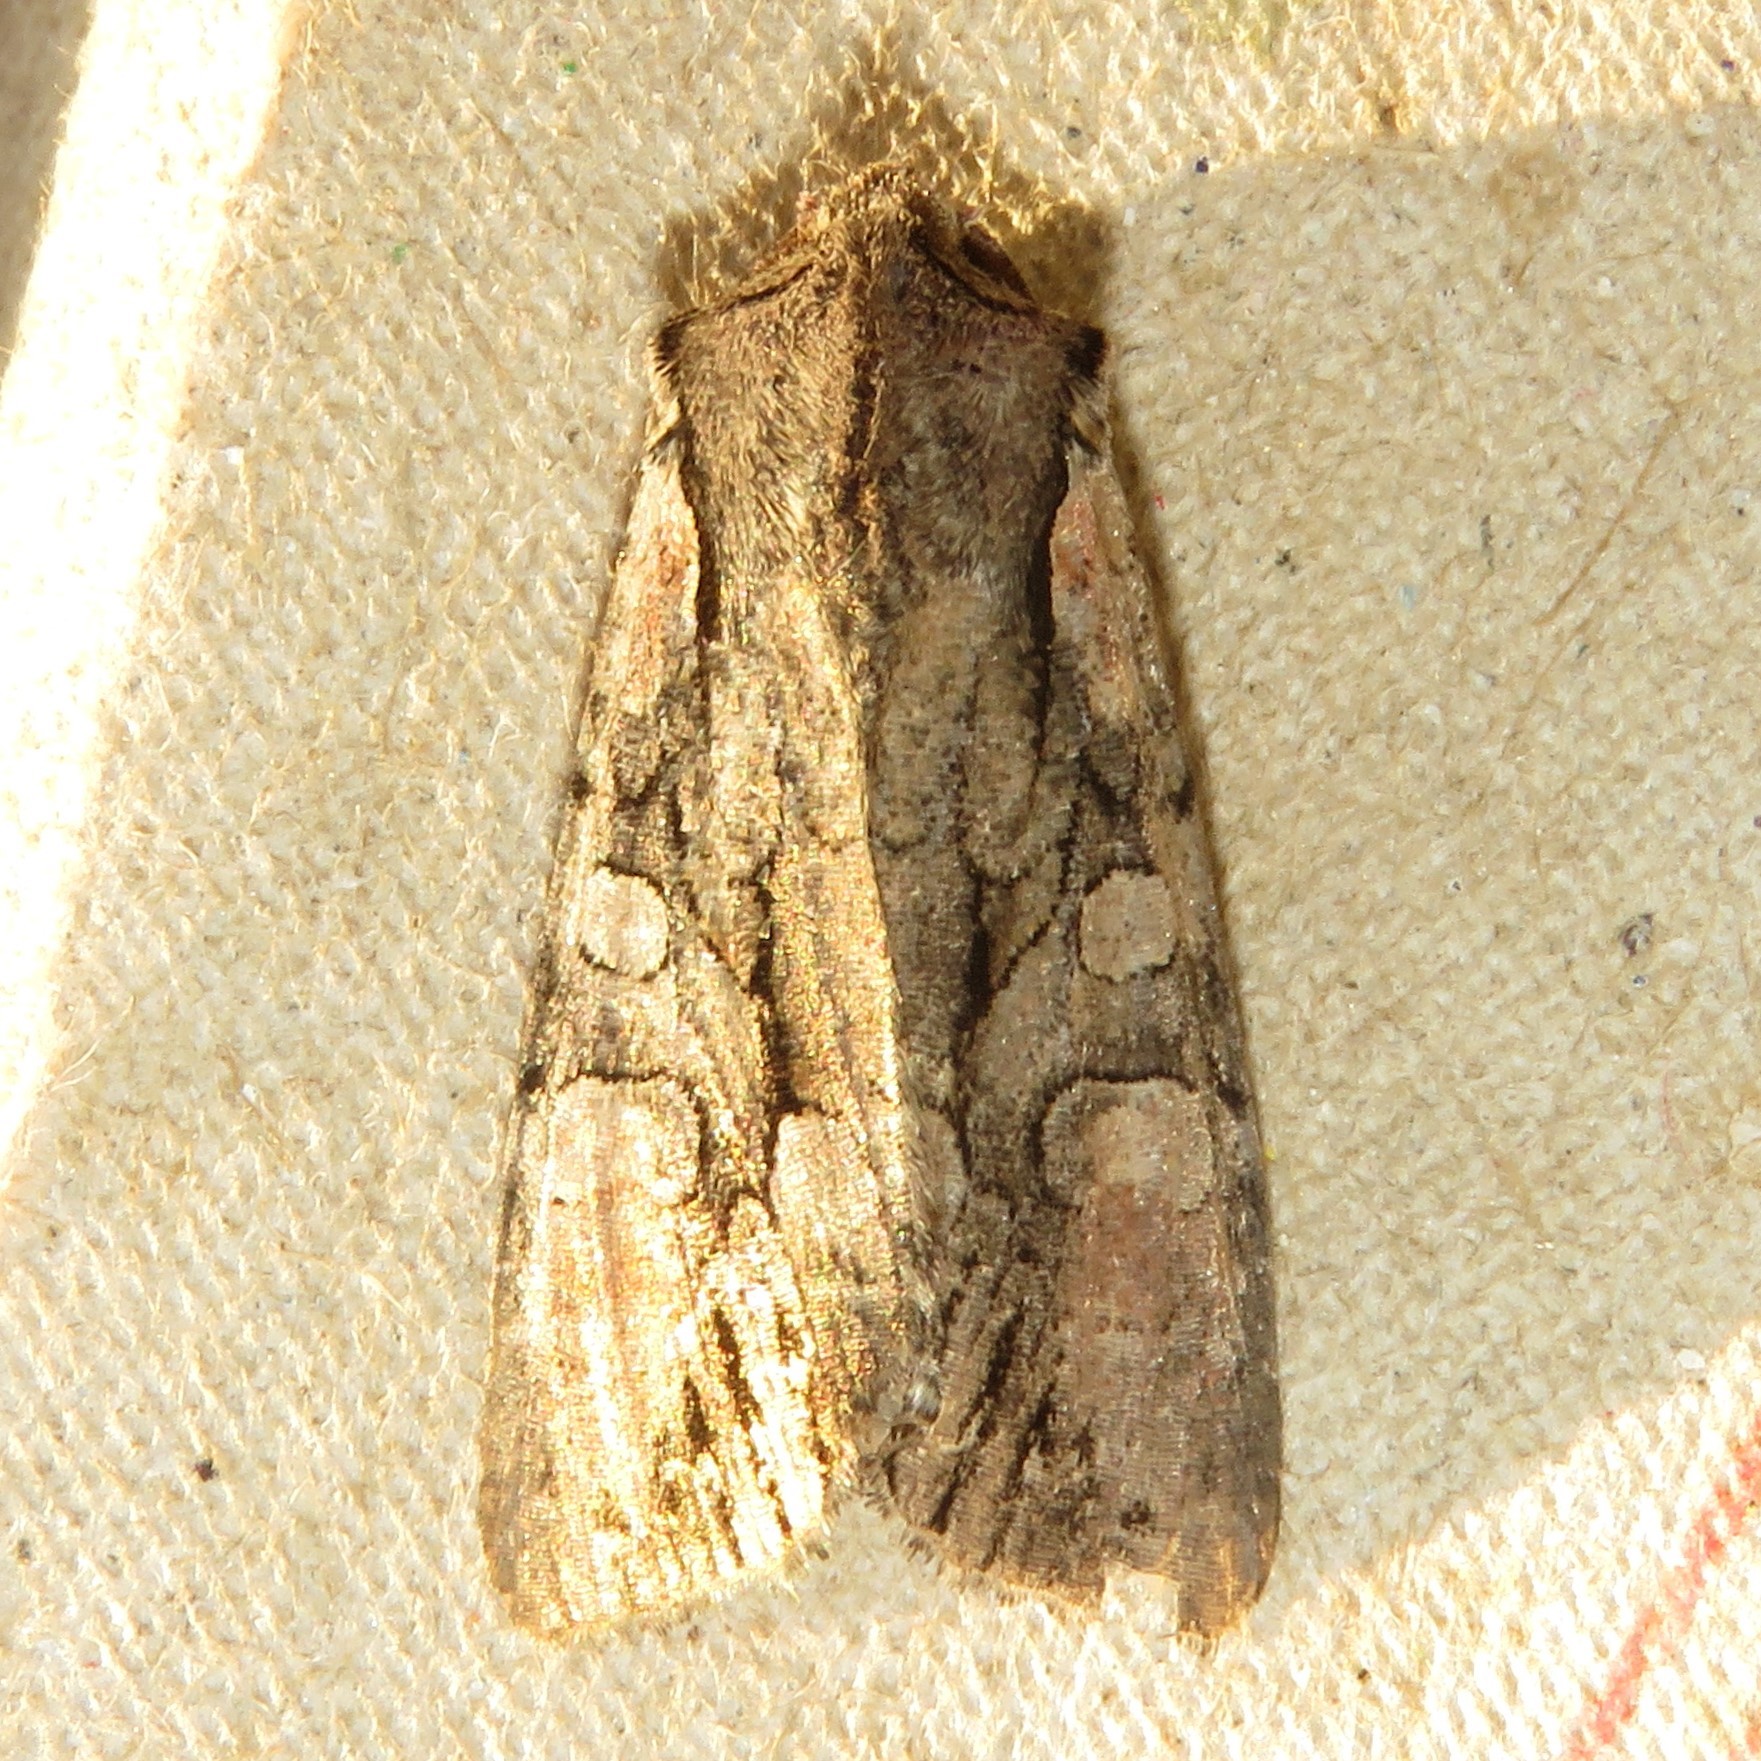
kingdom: Animalia
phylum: Arthropoda
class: Insecta
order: Lepidoptera
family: Noctuidae
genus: Lacanobia
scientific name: Lacanobia subjuncta
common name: Speckled cutworm moth
